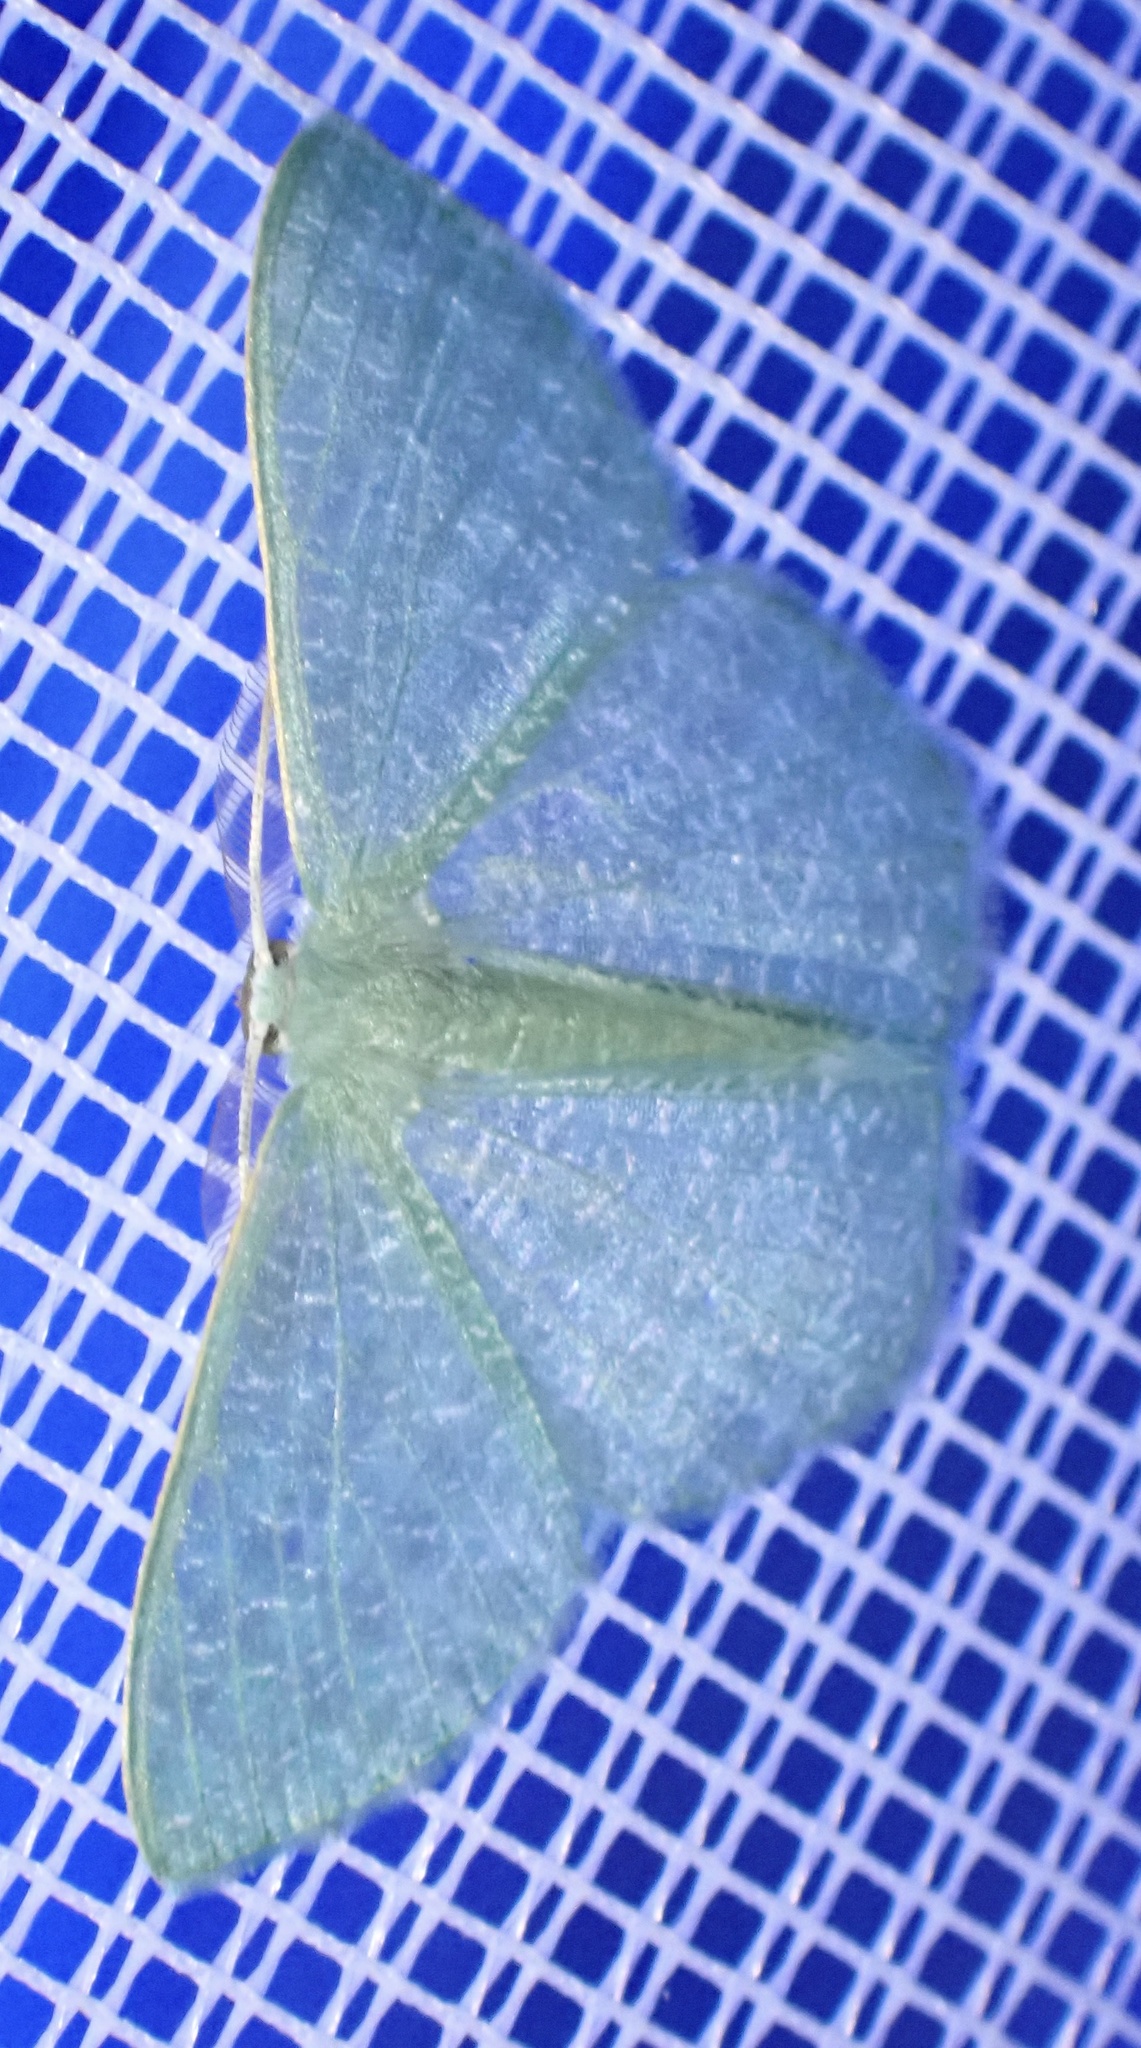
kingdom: Animalia
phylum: Arthropoda
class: Insecta
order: Lepidoptera
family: Geometridae
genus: Prasinocyma
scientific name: Prasinocyma vermicularia
